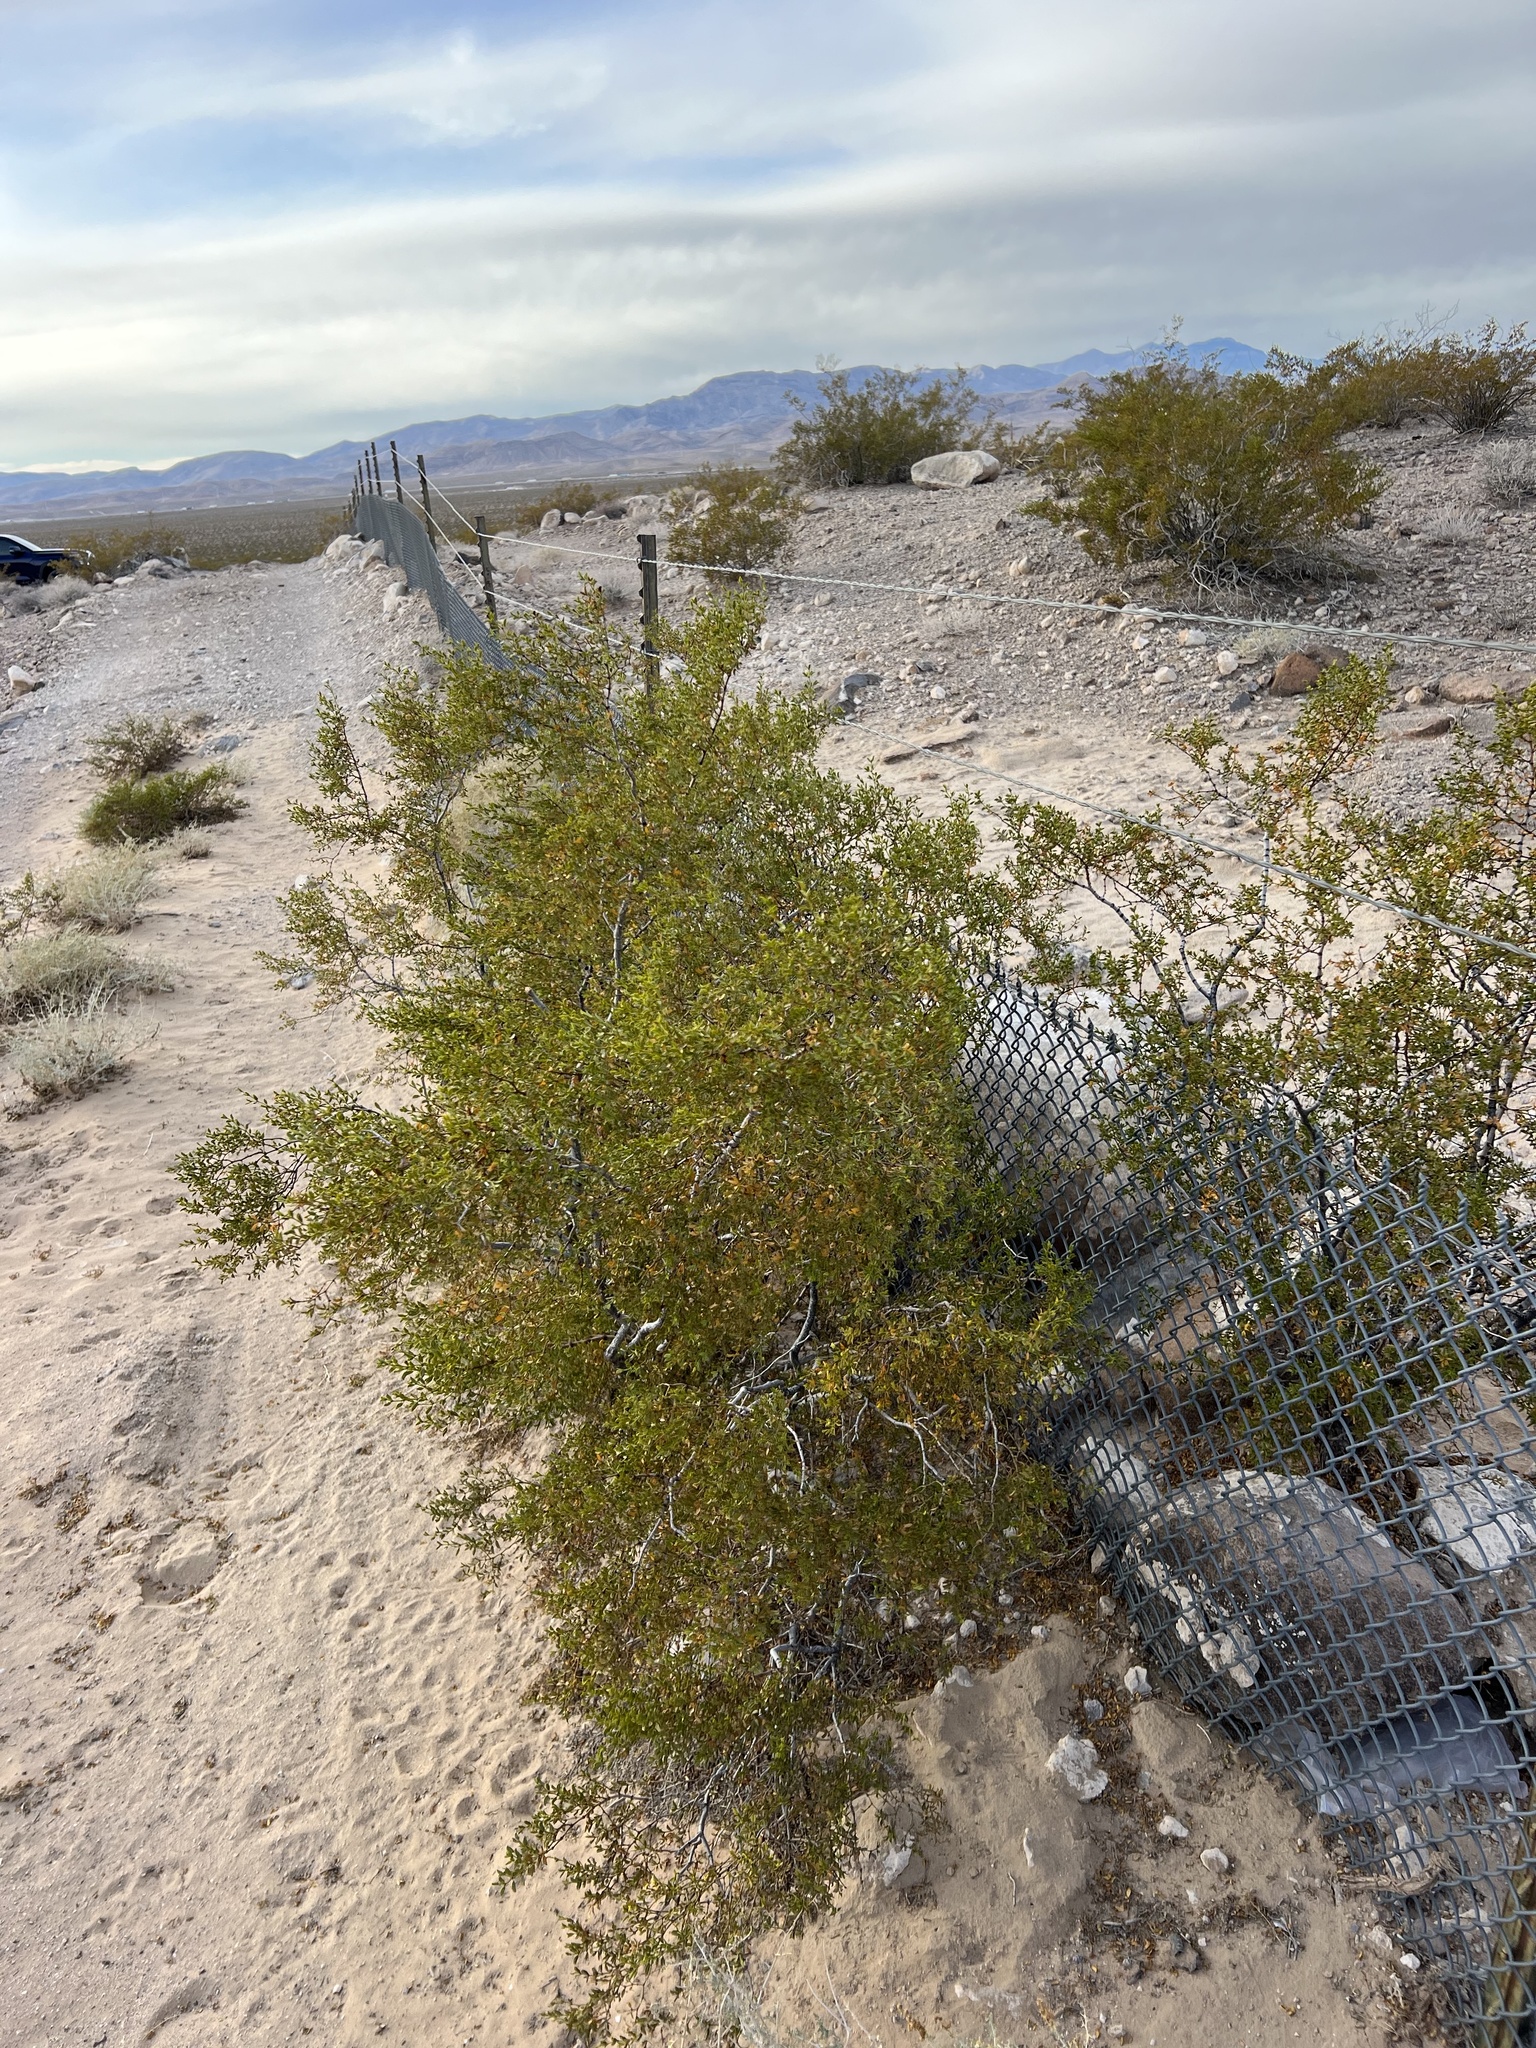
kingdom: Plantae
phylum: Tracheophyta
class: Magnoliopsida
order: Zygophyllales
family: Zygophyllaceae
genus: Larrea
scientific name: Larrea tridentata
